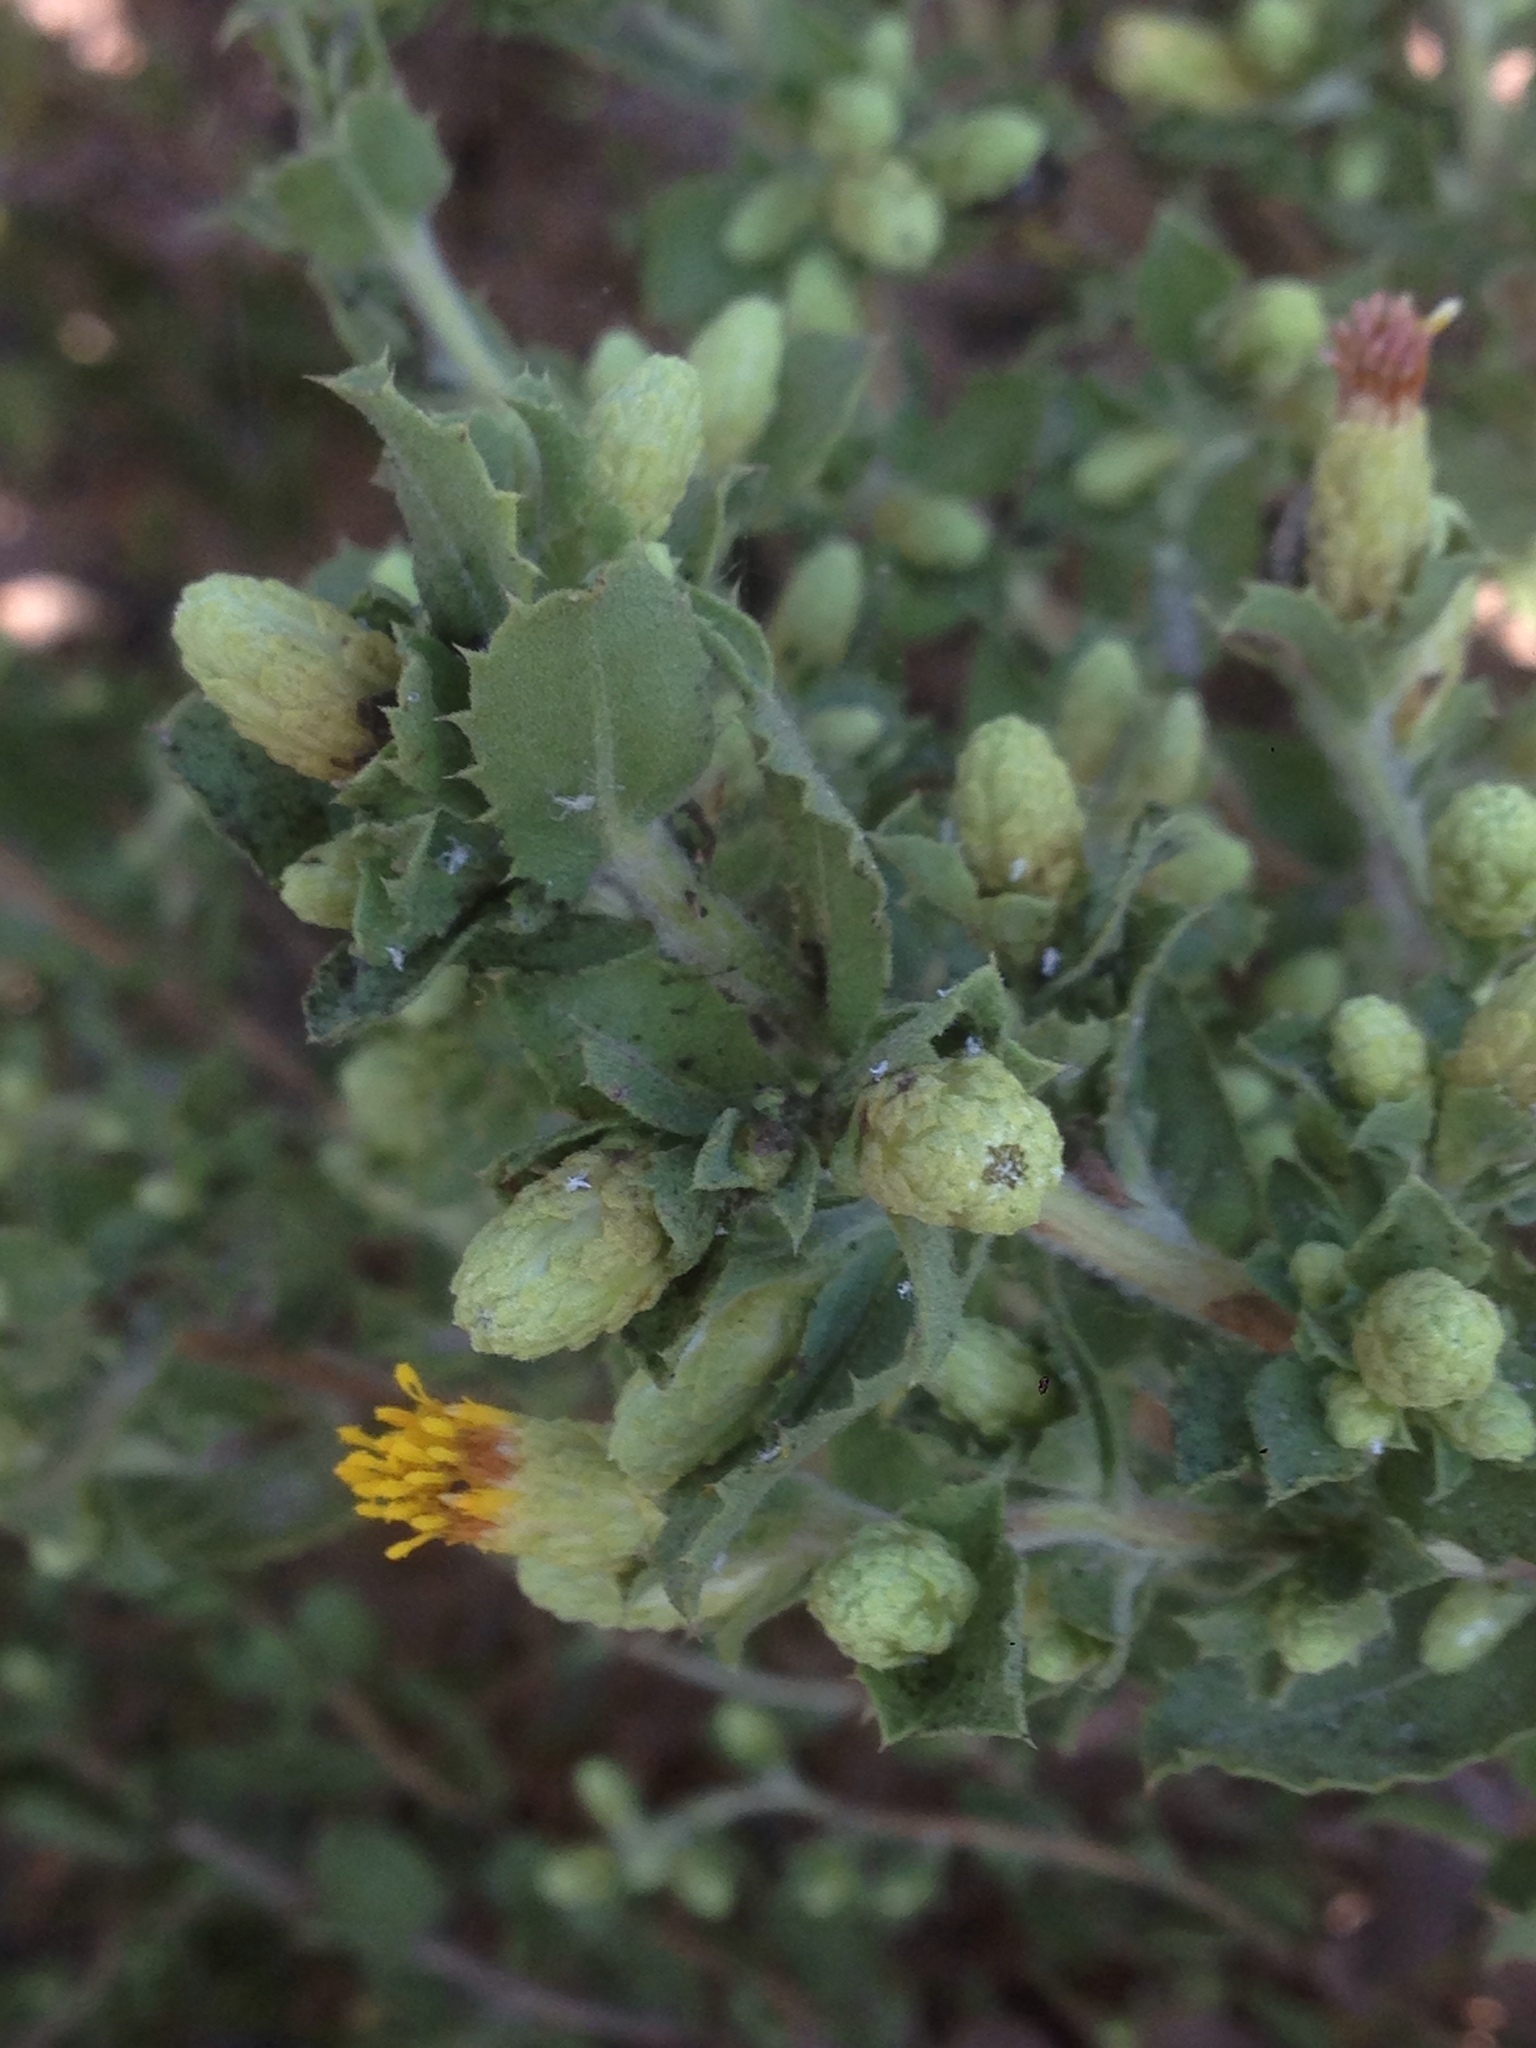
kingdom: Plantae
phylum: Tracheophyta
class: Magnoliopsida
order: Asterales
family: Asteraceae
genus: Hazardia
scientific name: Hazardia squarrosa
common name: Saw-tooth goldenbush
